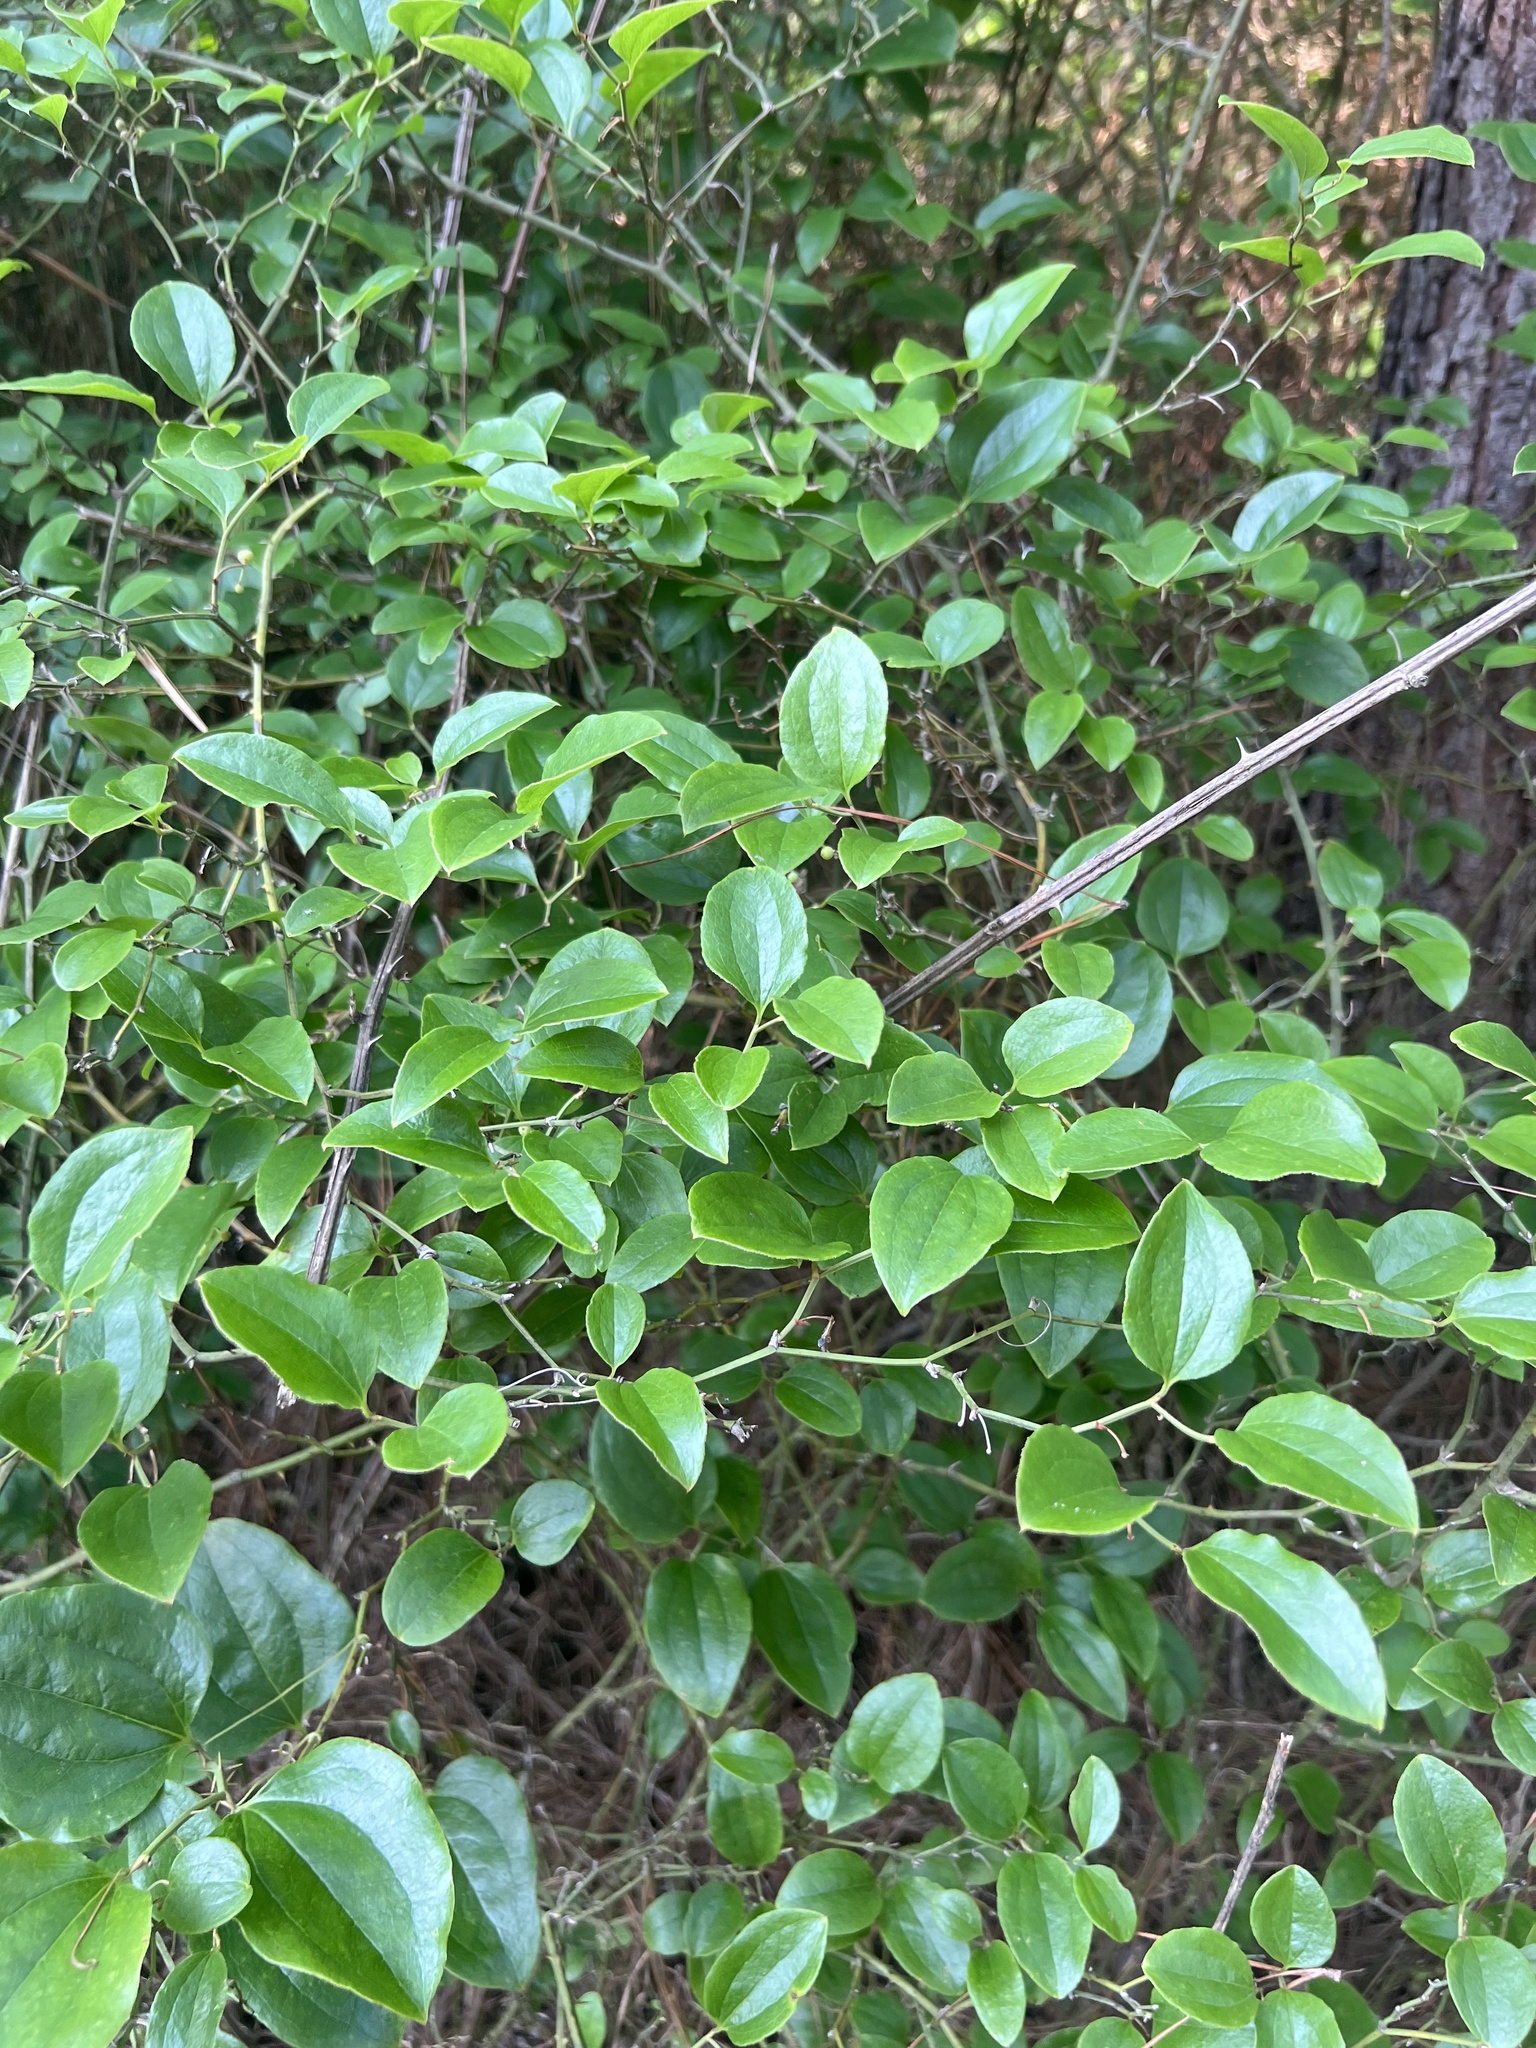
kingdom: Plantae
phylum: Tracheophyta
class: Liliopsida
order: Liliales
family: Smilacaceae
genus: Smilax
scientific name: Smilax rotundifolia
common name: Bullbriar
